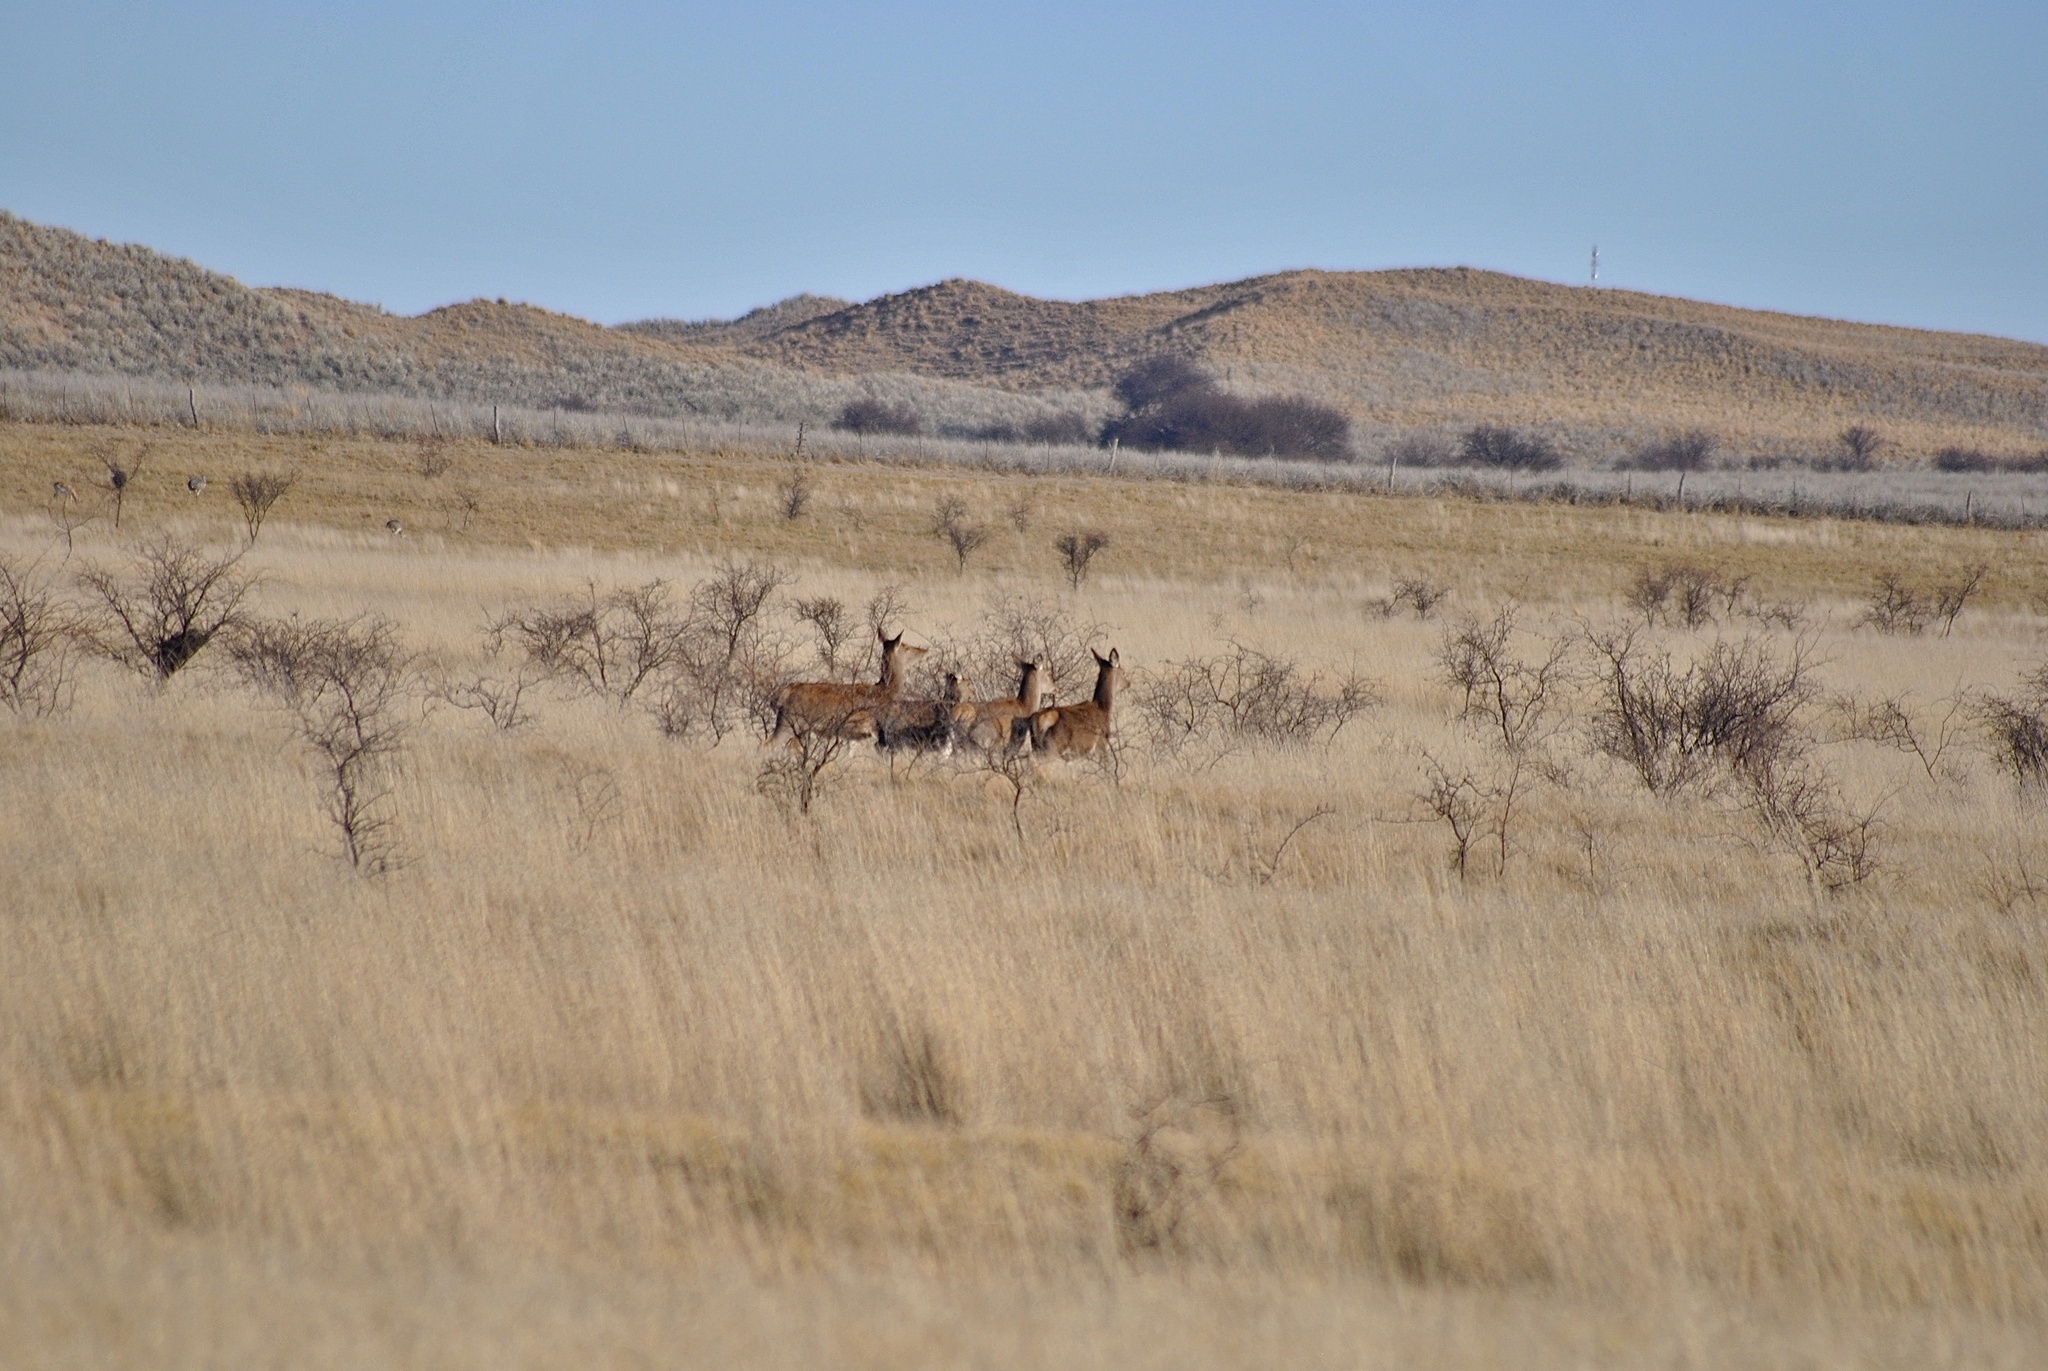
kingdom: Animalia
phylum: Chordata
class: Mammalia
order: Artiodactyla
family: Cervidae
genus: Cervus
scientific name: Cervus elaphus
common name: Red deer
